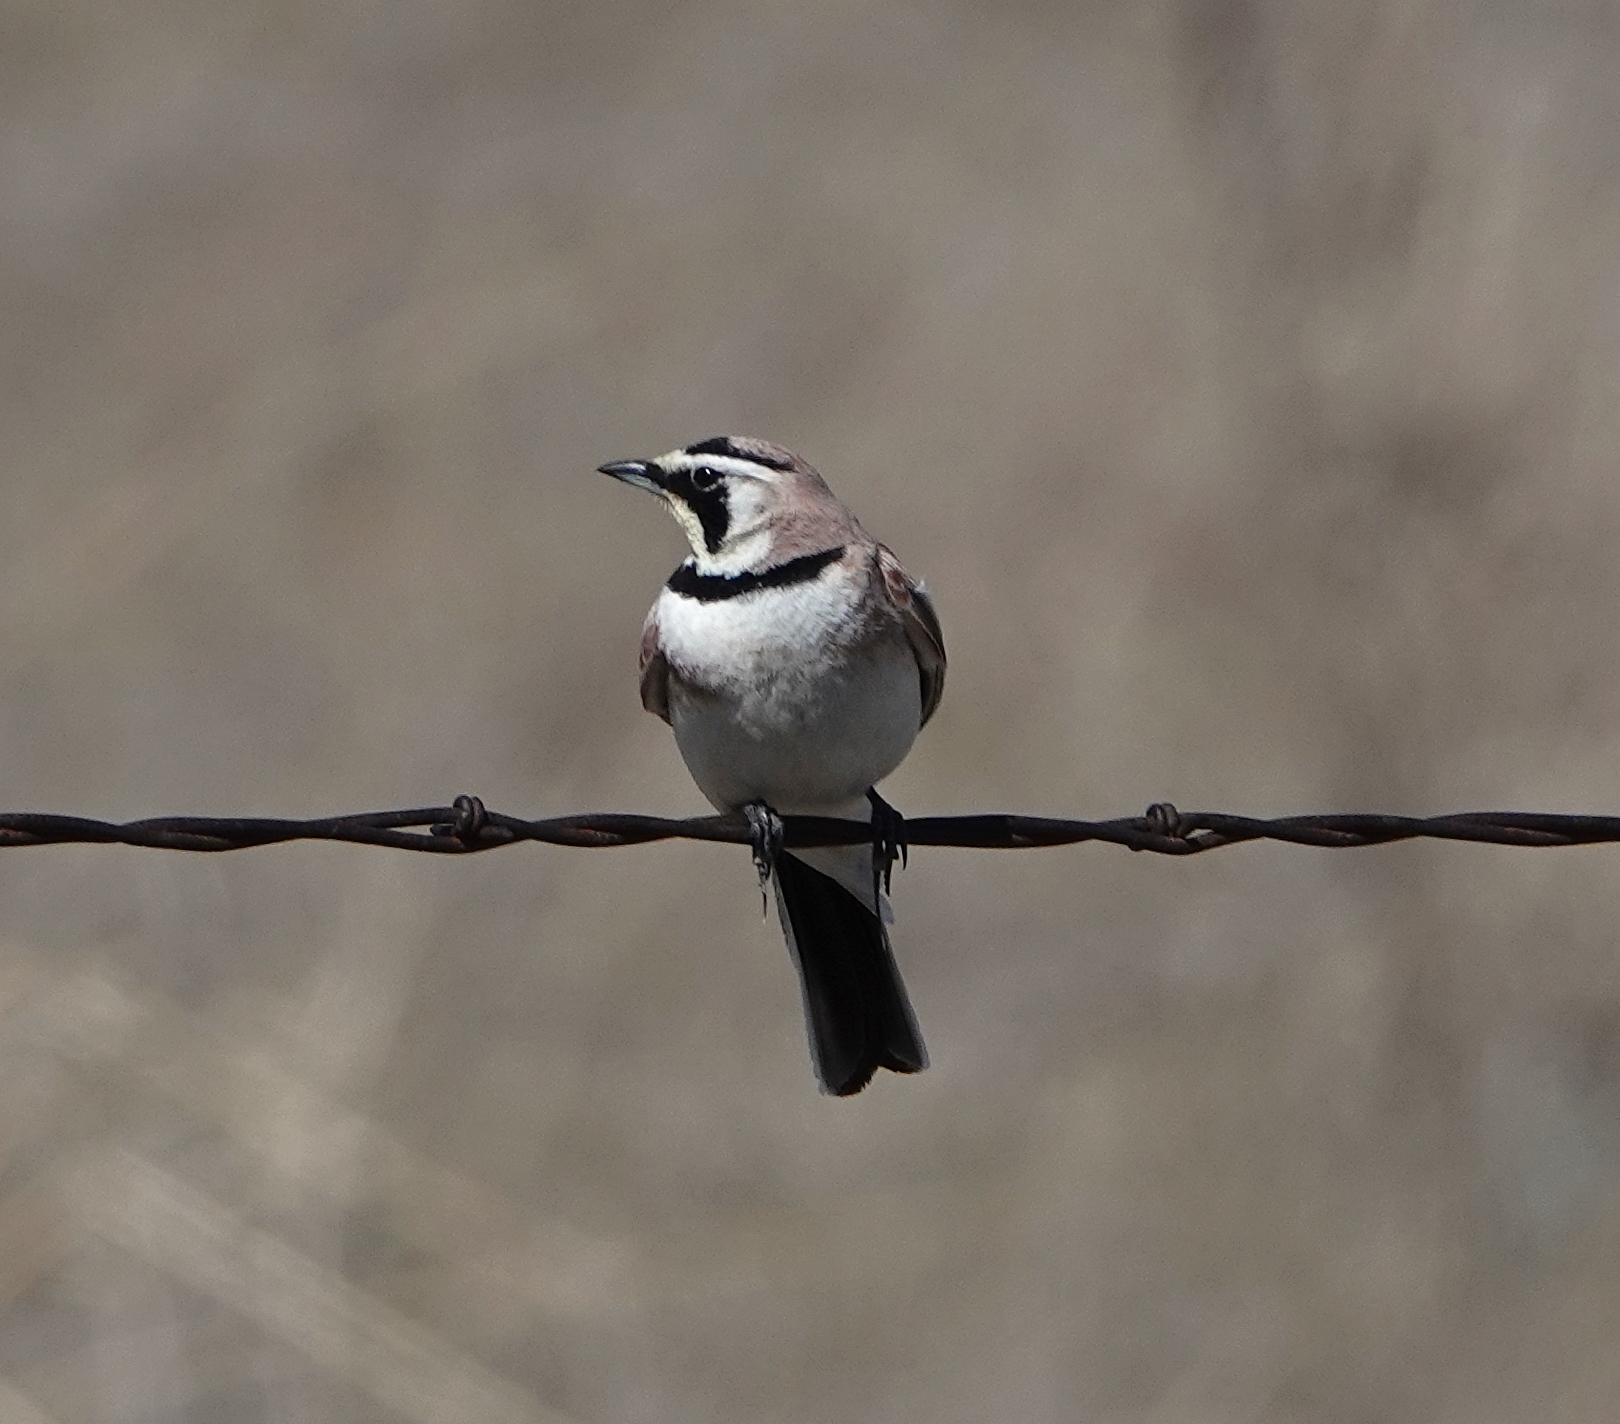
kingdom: Animalia
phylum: Chordata
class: Aves
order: Passeriformes
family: Alaudidae
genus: Eremophila
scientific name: Eremophila alpestris
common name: Horned lark
